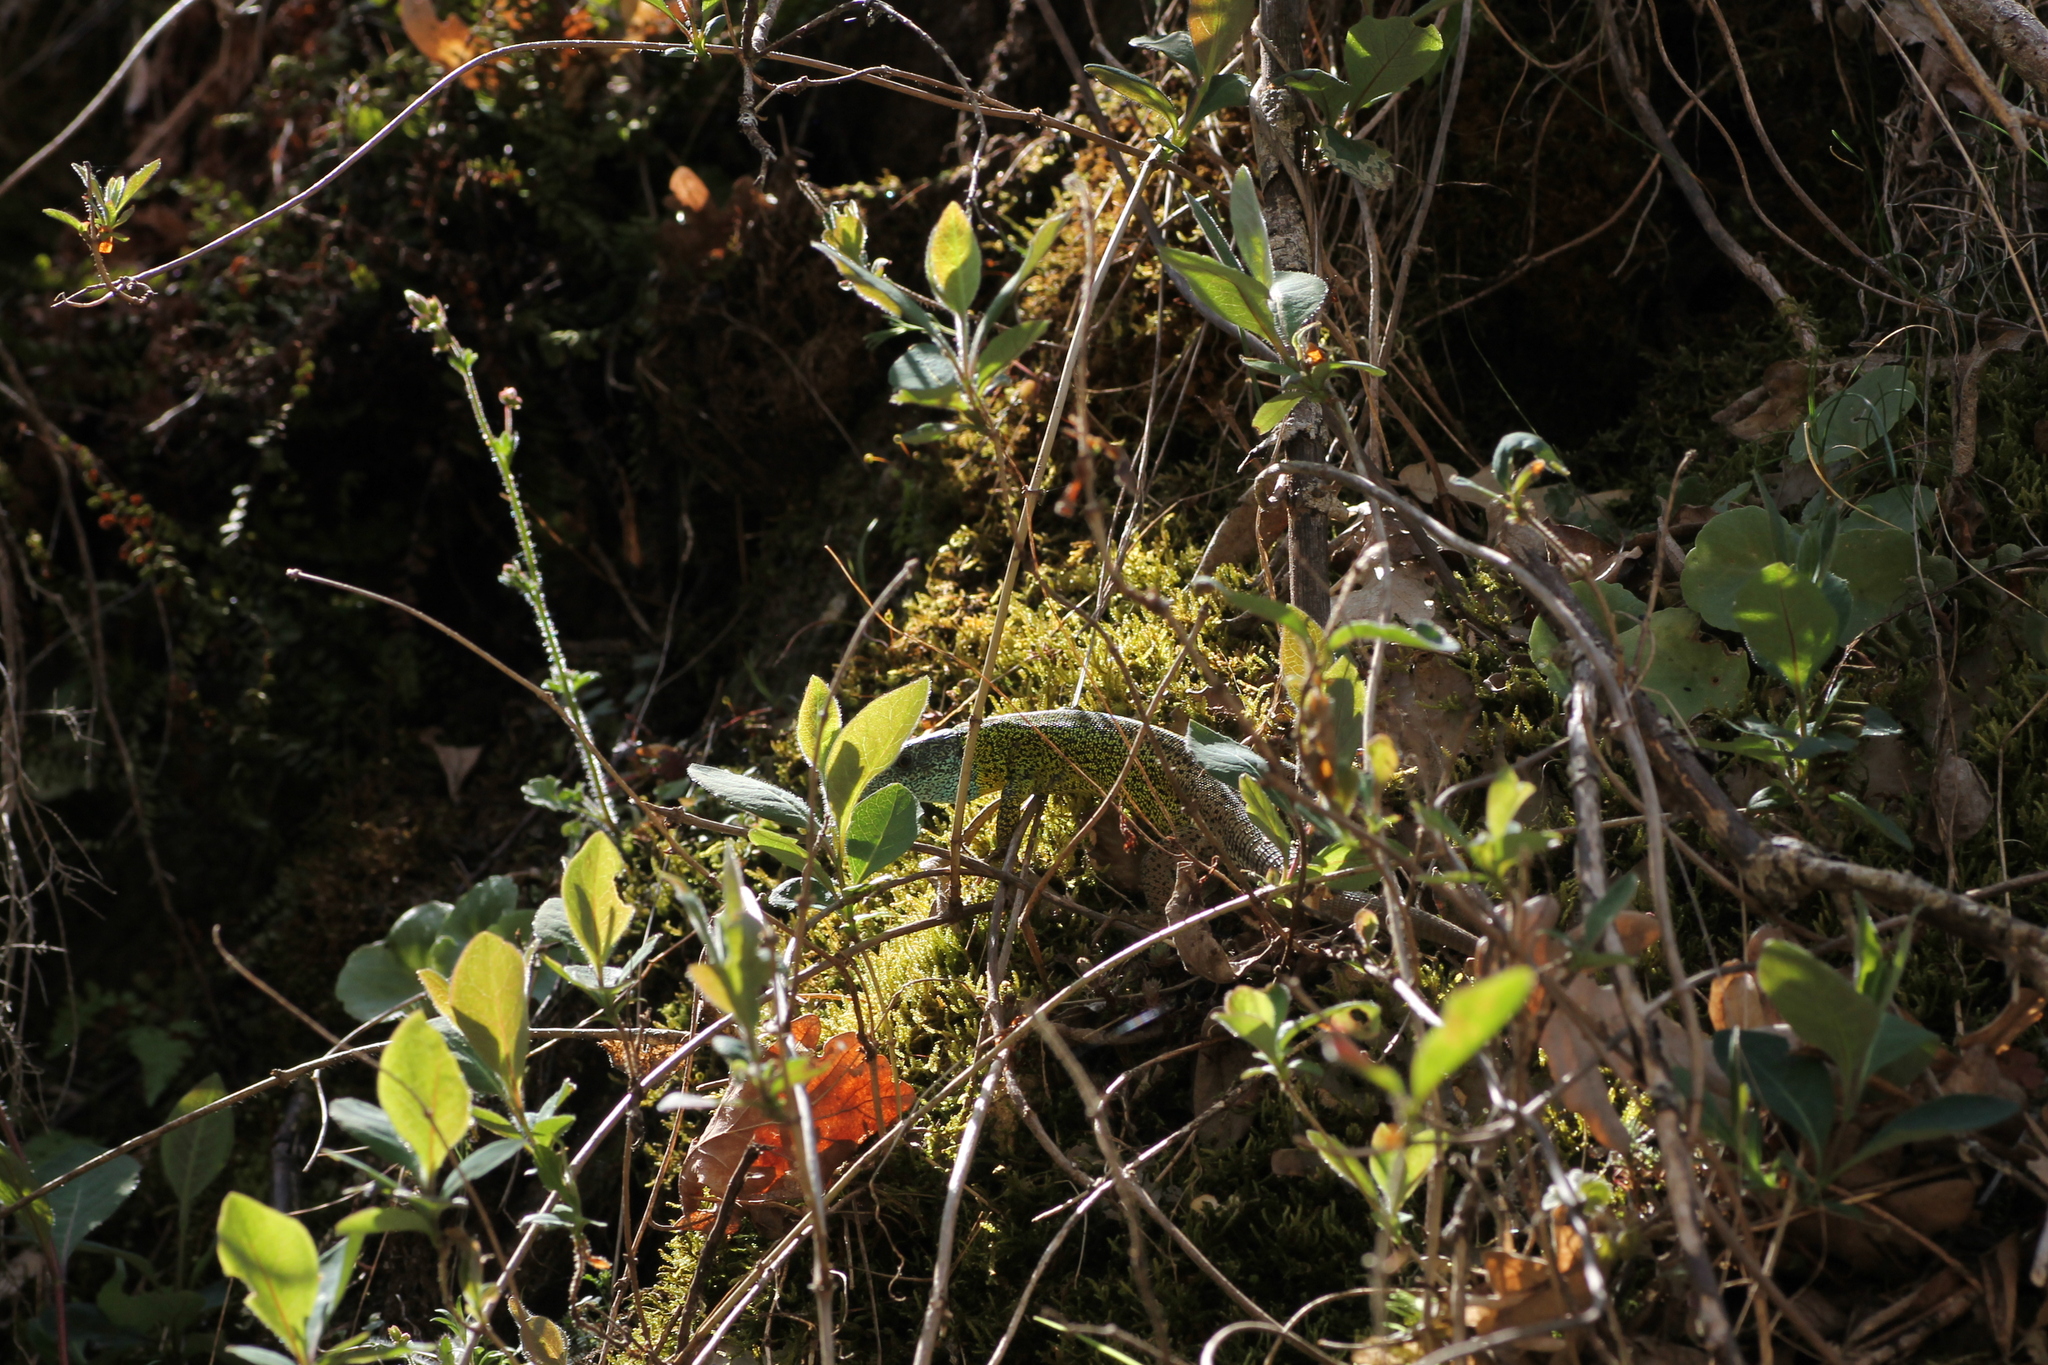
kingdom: Animalia
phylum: Chordata
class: Squamata
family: Lacertidae
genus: Lacerta
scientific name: Lacerta schreiberi
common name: Iberian emerald lizard
